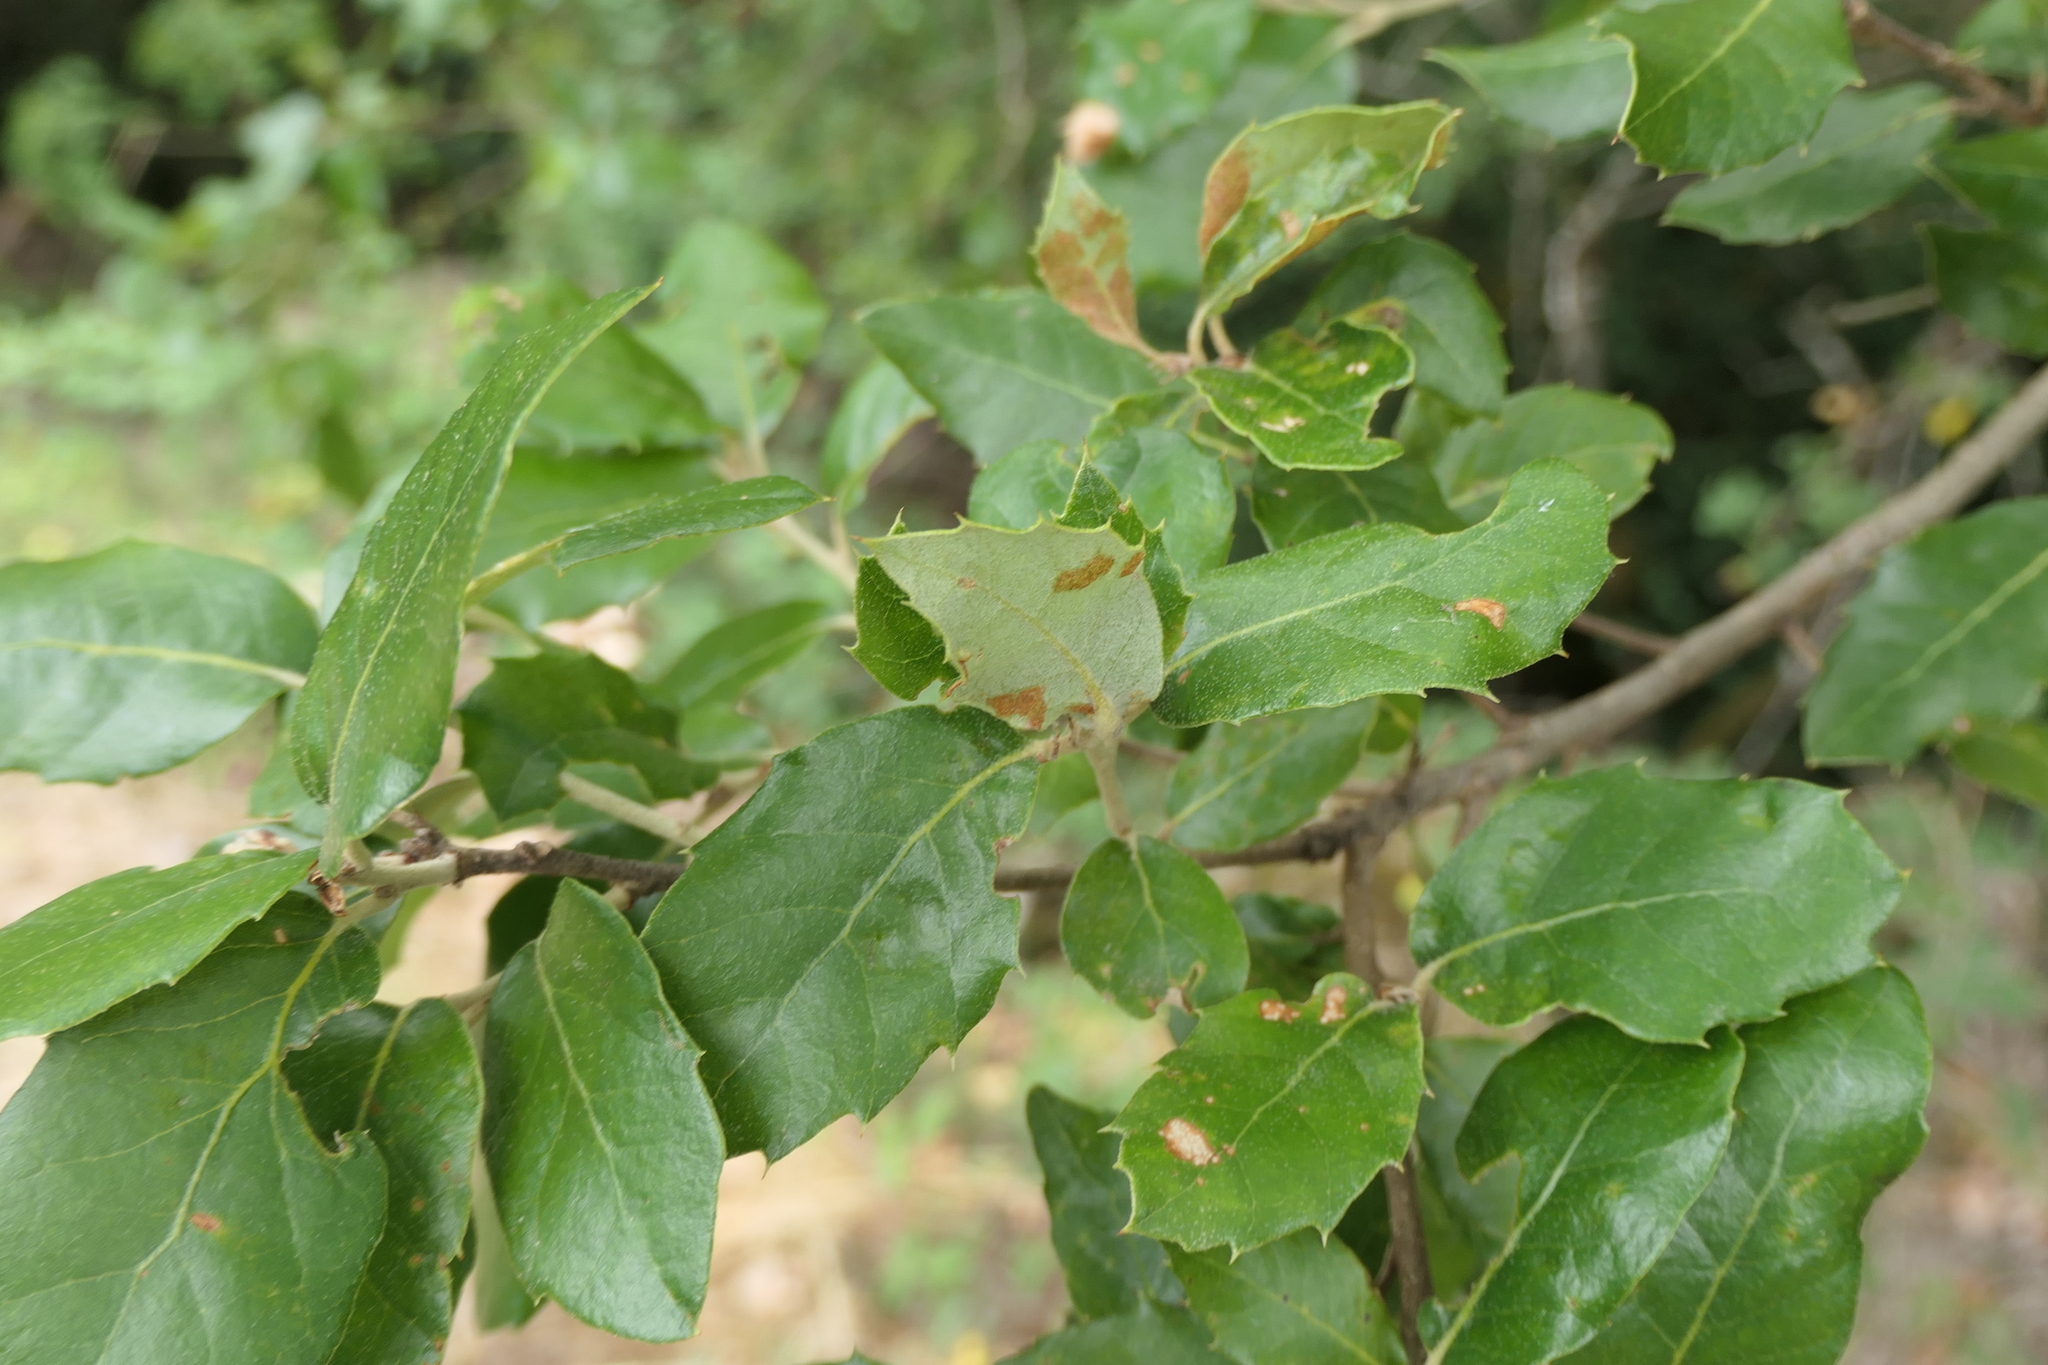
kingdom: Plantae
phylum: Tracheophyta
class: Magnoliopsida
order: Fagales
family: Fagaceae
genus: Quercus
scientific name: Quercus rotundifolia
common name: Holm oak
